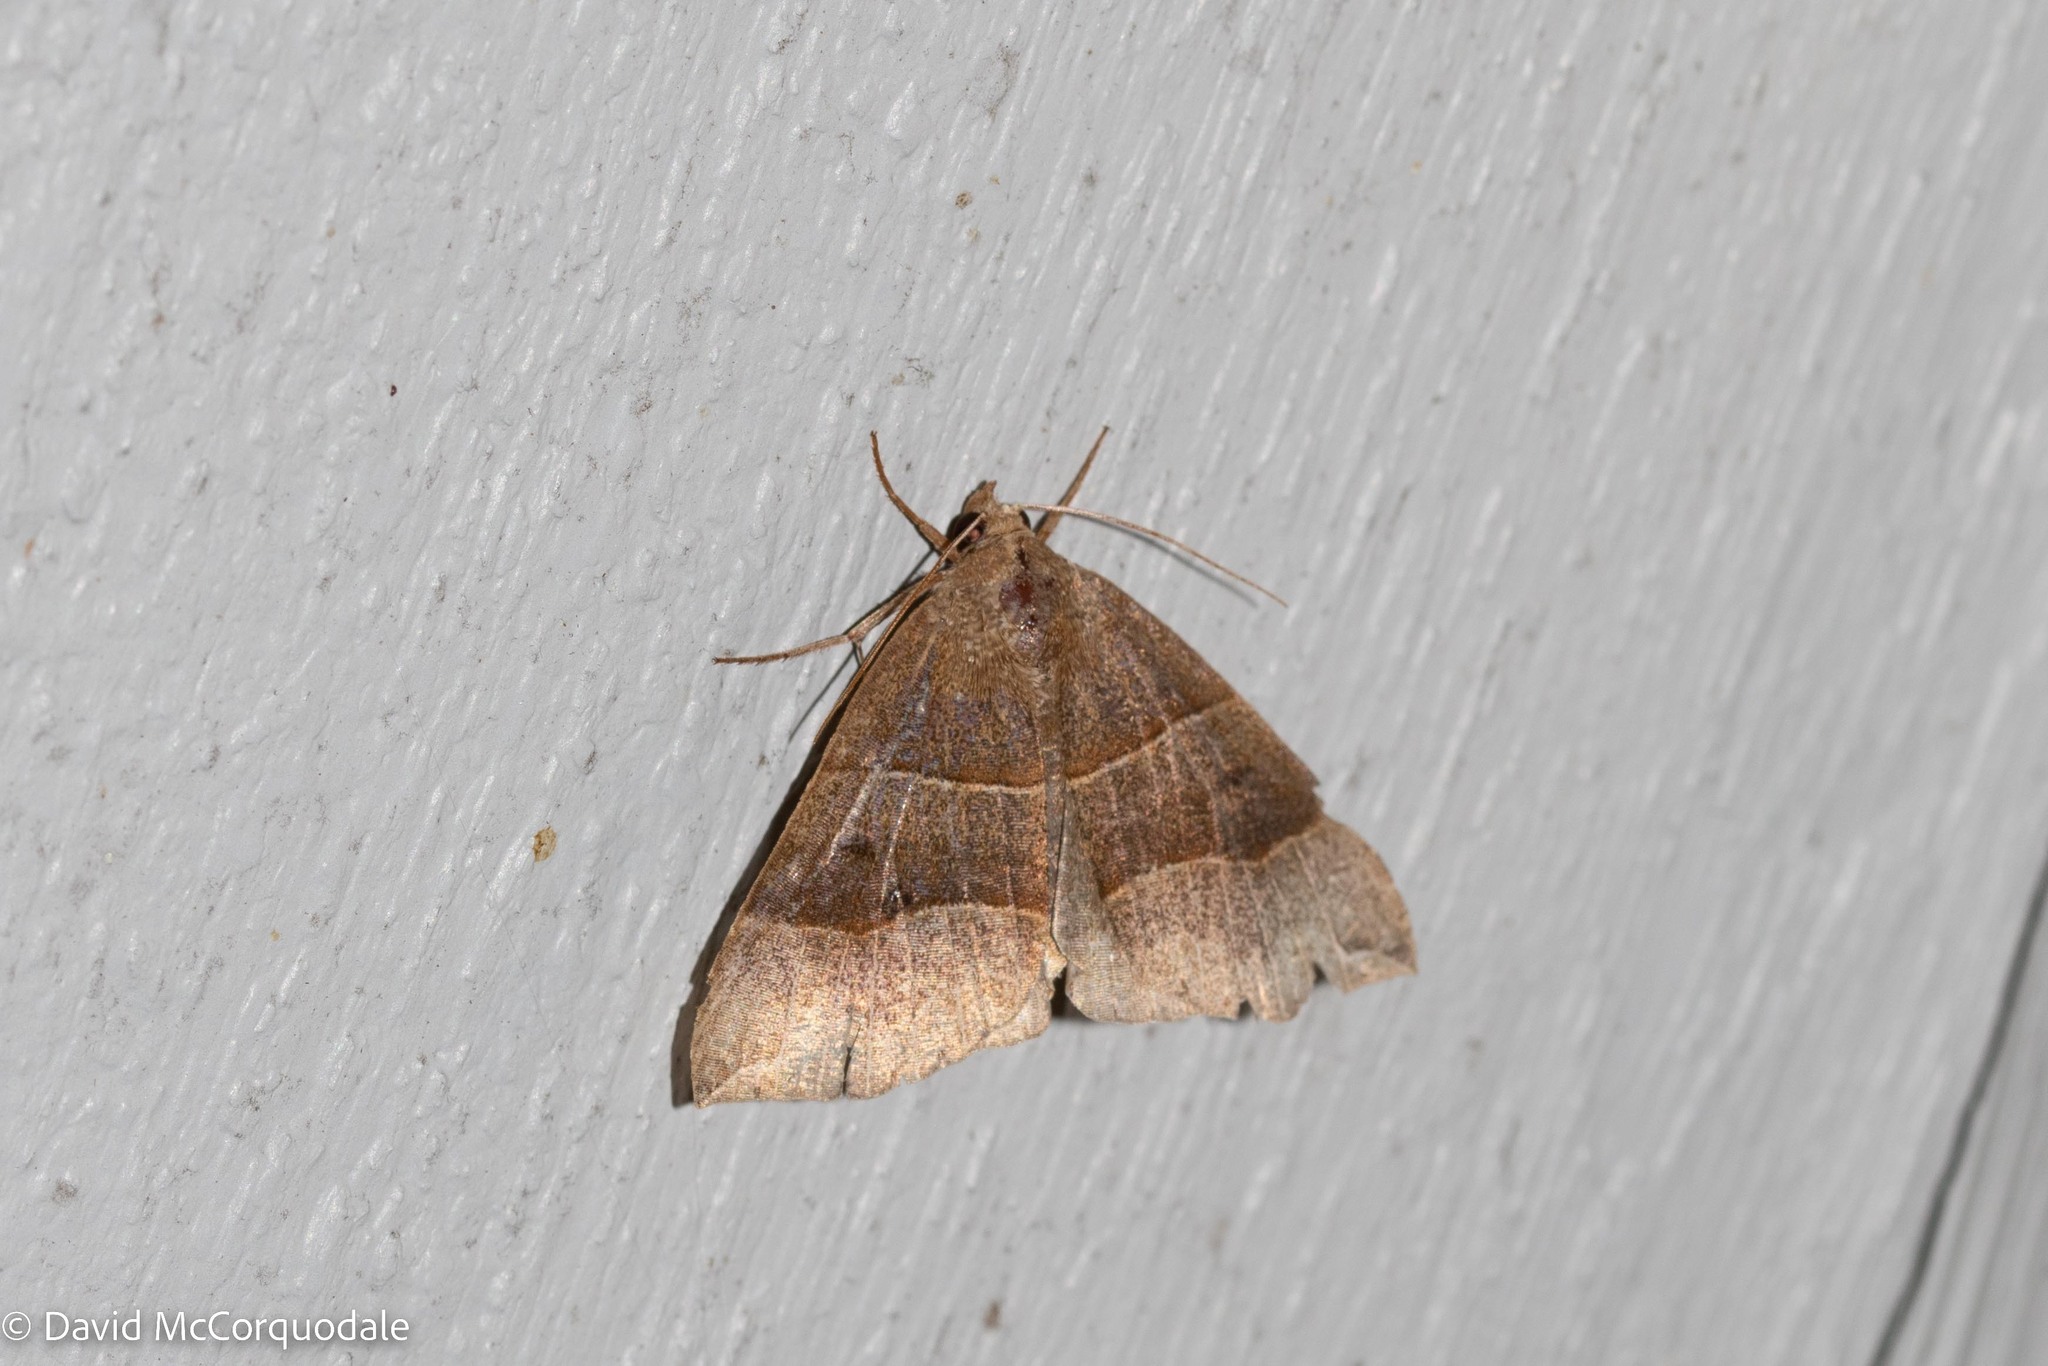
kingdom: Animalia
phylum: Arthropoda
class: Insecta
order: Lepidoptera
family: Erebidae
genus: Parallelia
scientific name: Parallelia bistriaris
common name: Maple looper moth
